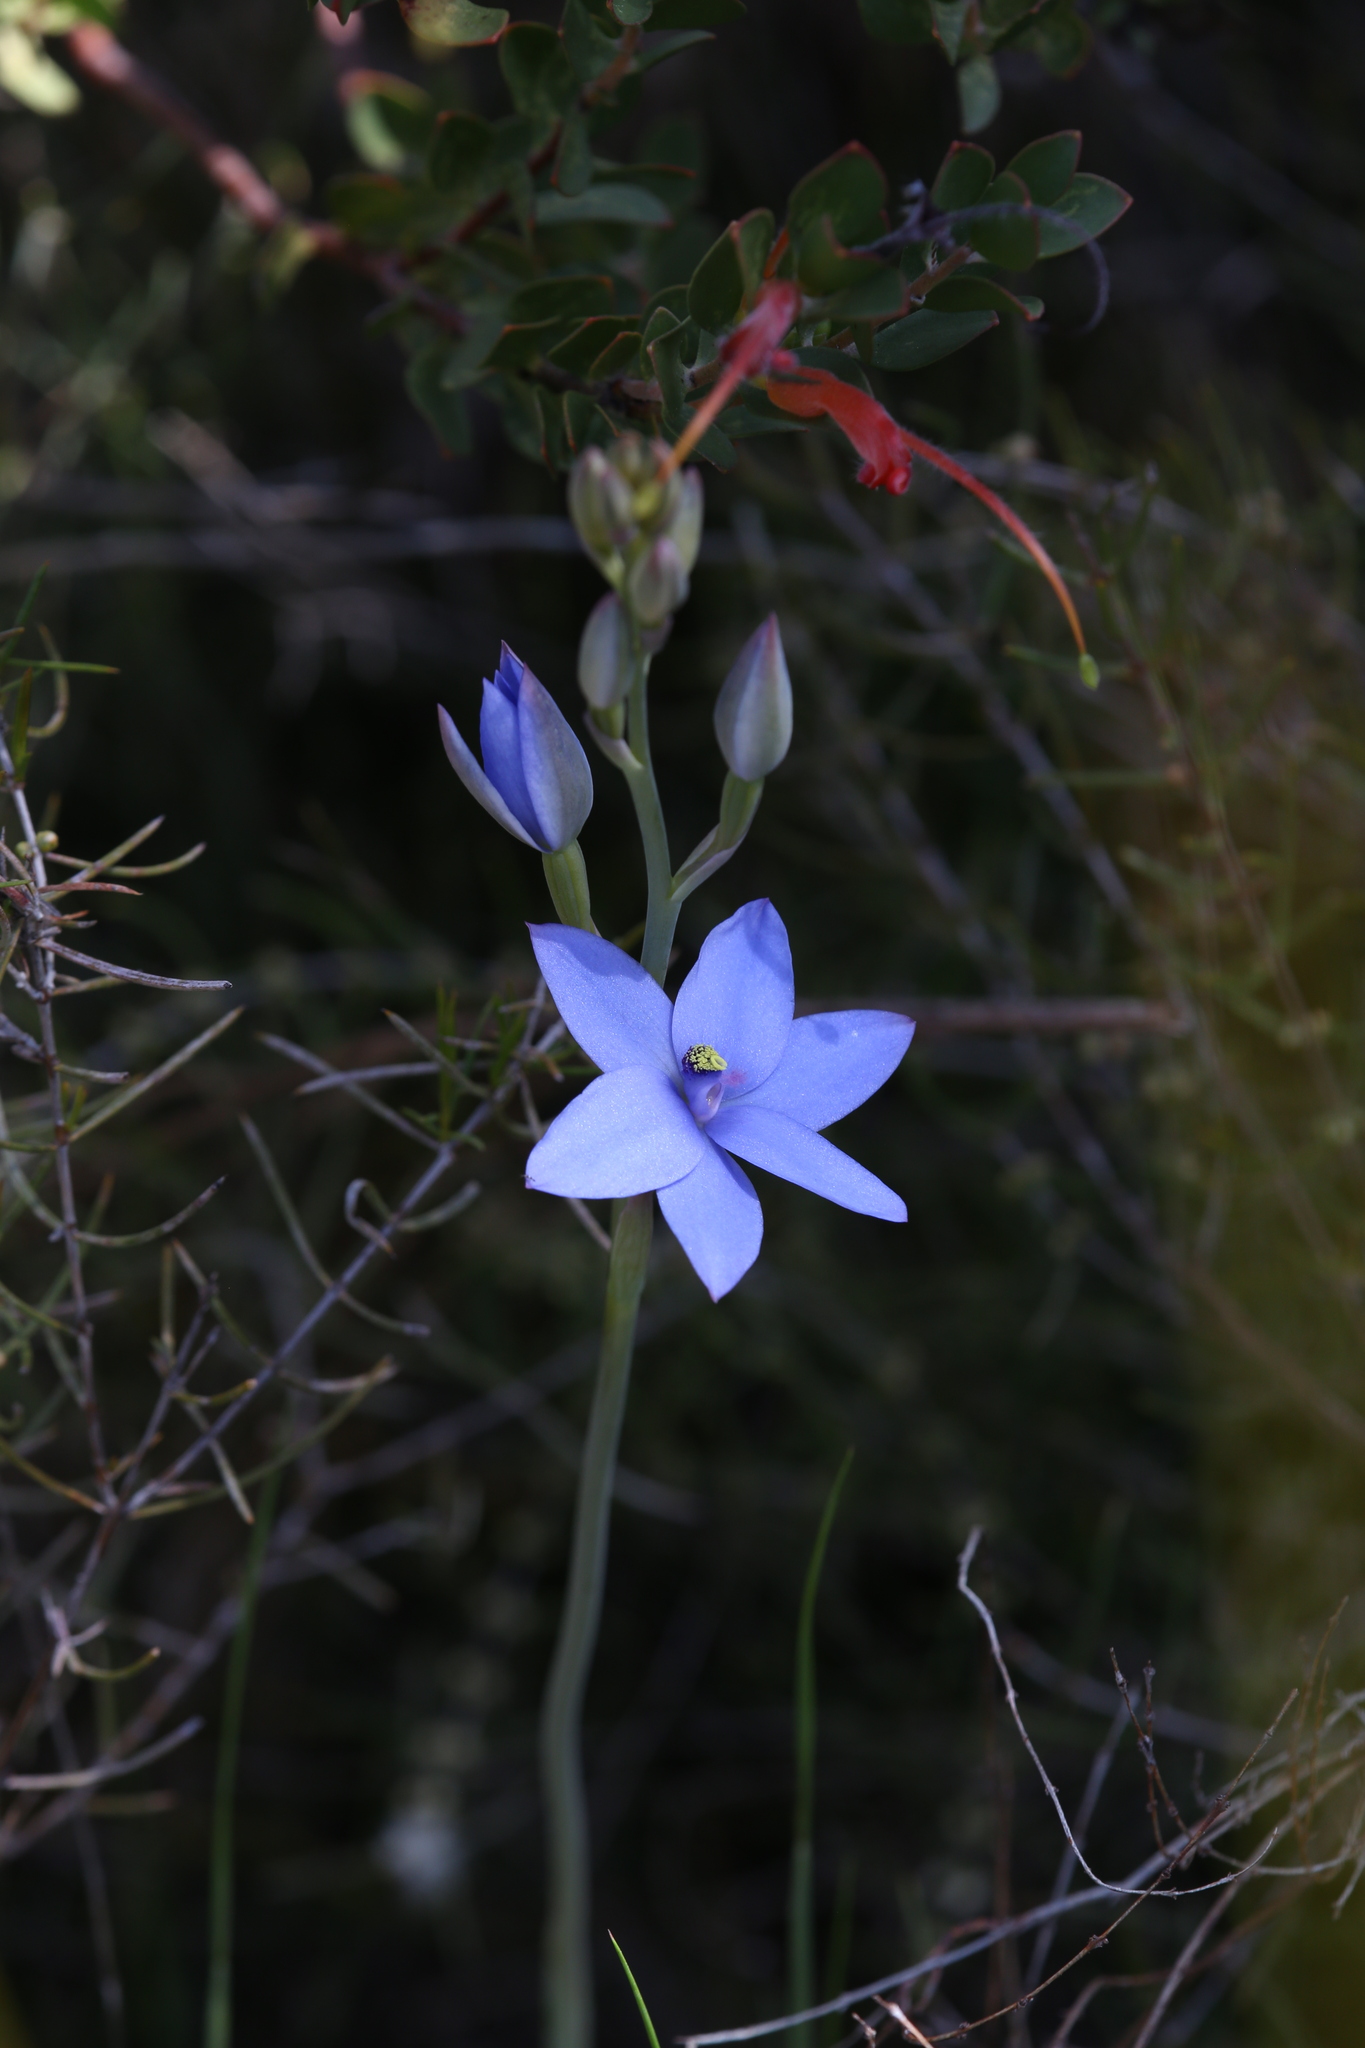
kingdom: Plantae
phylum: Tracheophyta
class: Liliopsida
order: Asparagales
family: Orchidaceae
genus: Thelymitra
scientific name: Thelymitra crinita
